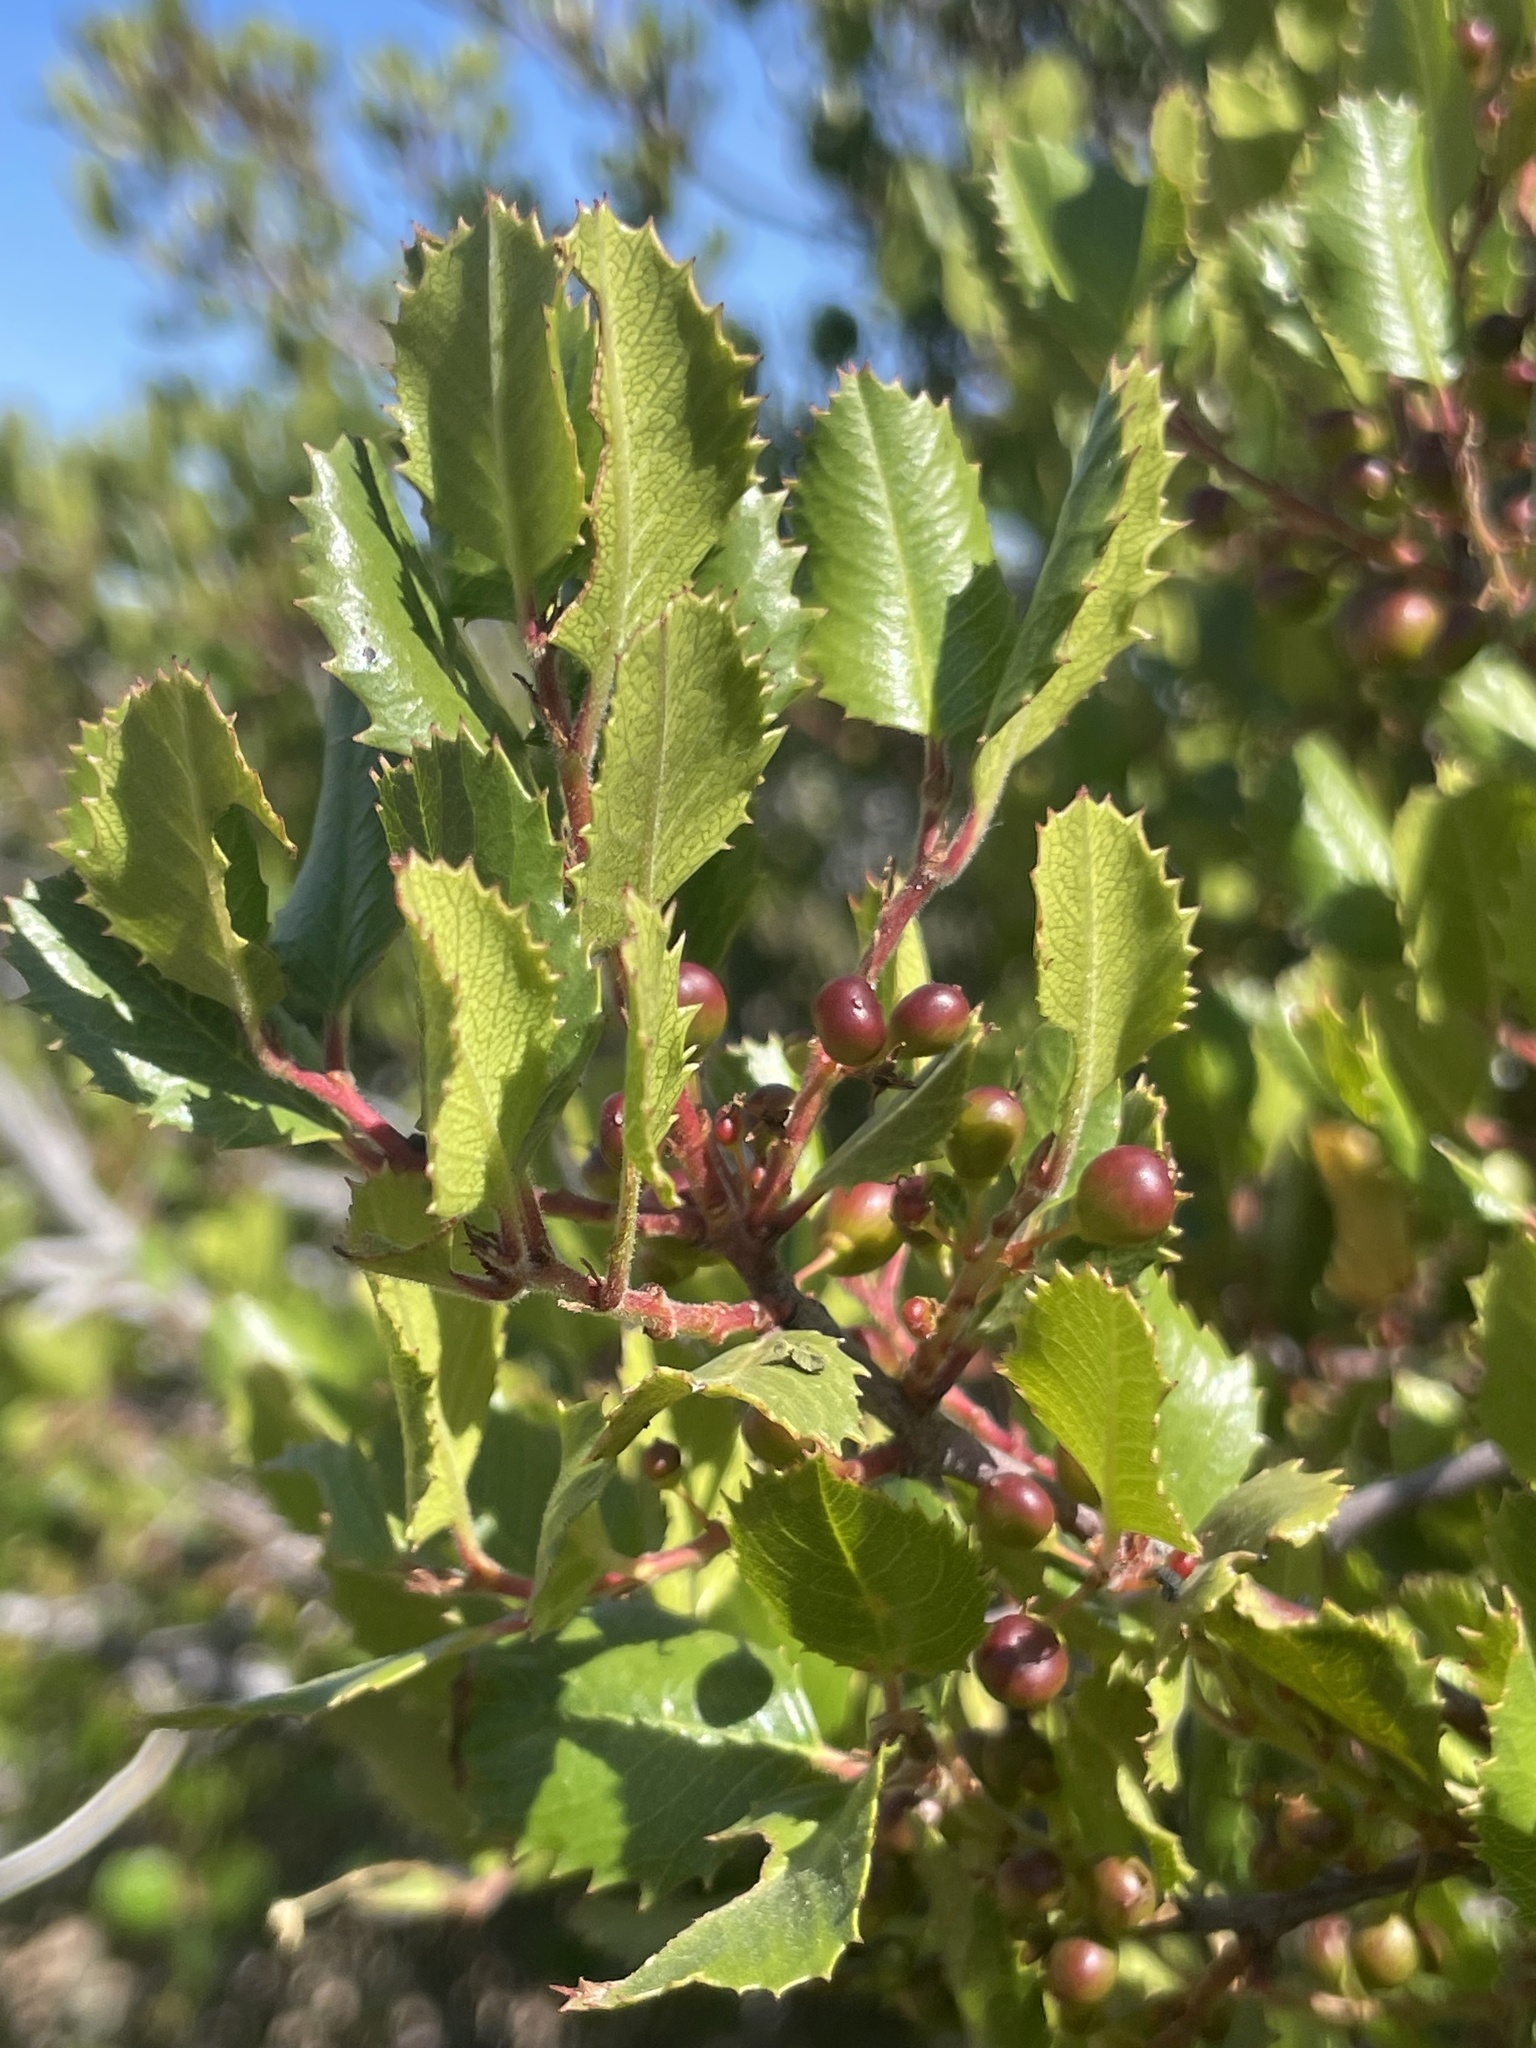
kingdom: Plantae
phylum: Tracheophyta
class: Magnoliopsida
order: Rosales
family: Rhamnaceae
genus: Endotropis
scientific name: Endotropis crocea
